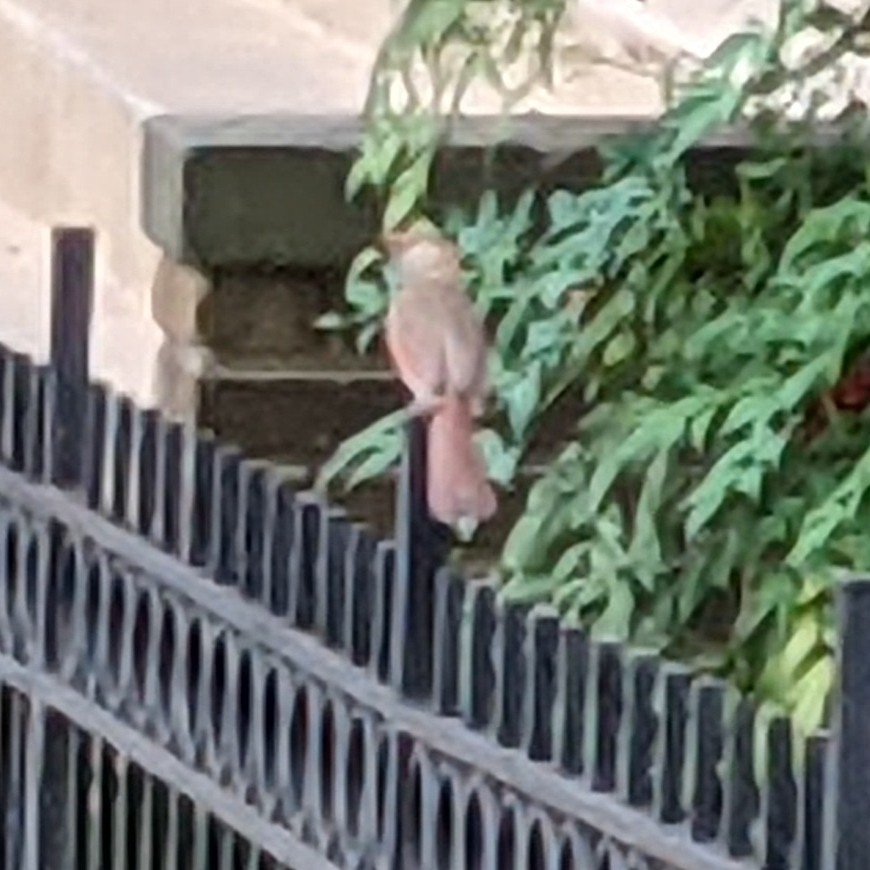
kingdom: Animalia
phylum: Chordata
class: Aves
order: Passeriformes
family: Cardinalidae
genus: Cardinalis
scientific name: Cardinalis cardinalis
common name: Northern cardinal
